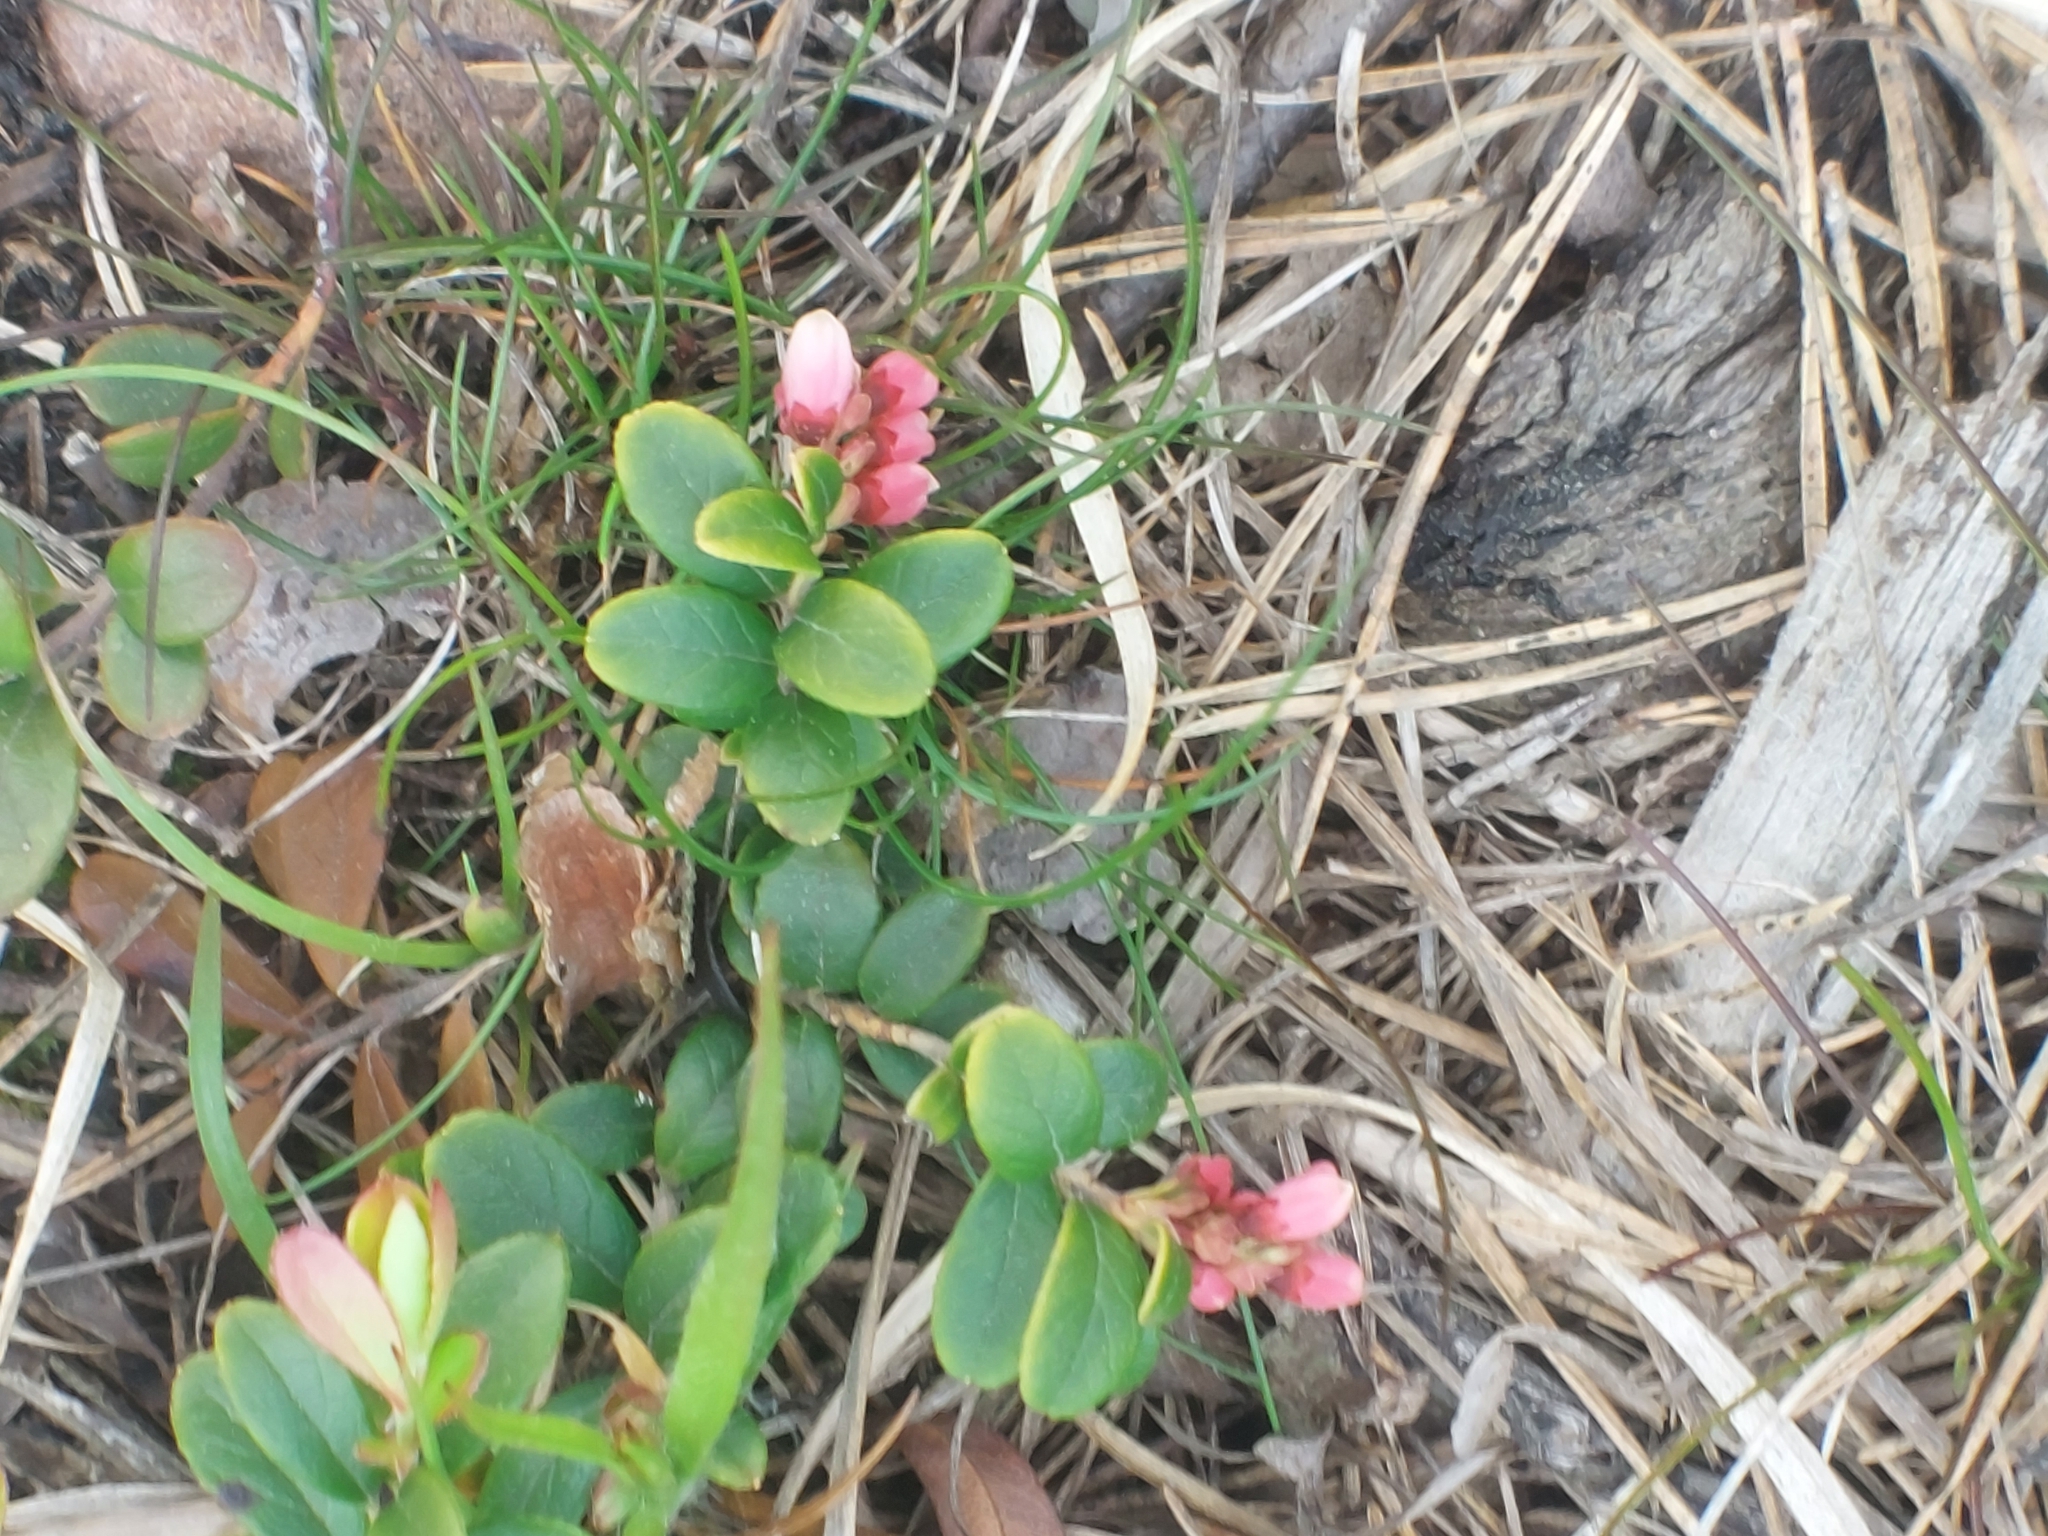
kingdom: Plantae
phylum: Tracheophyta
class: Magnoliopsida
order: Ericales
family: Ericaceae
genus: Vaccinium
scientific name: Vaccinium vitis-idaea
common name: Cowberry
